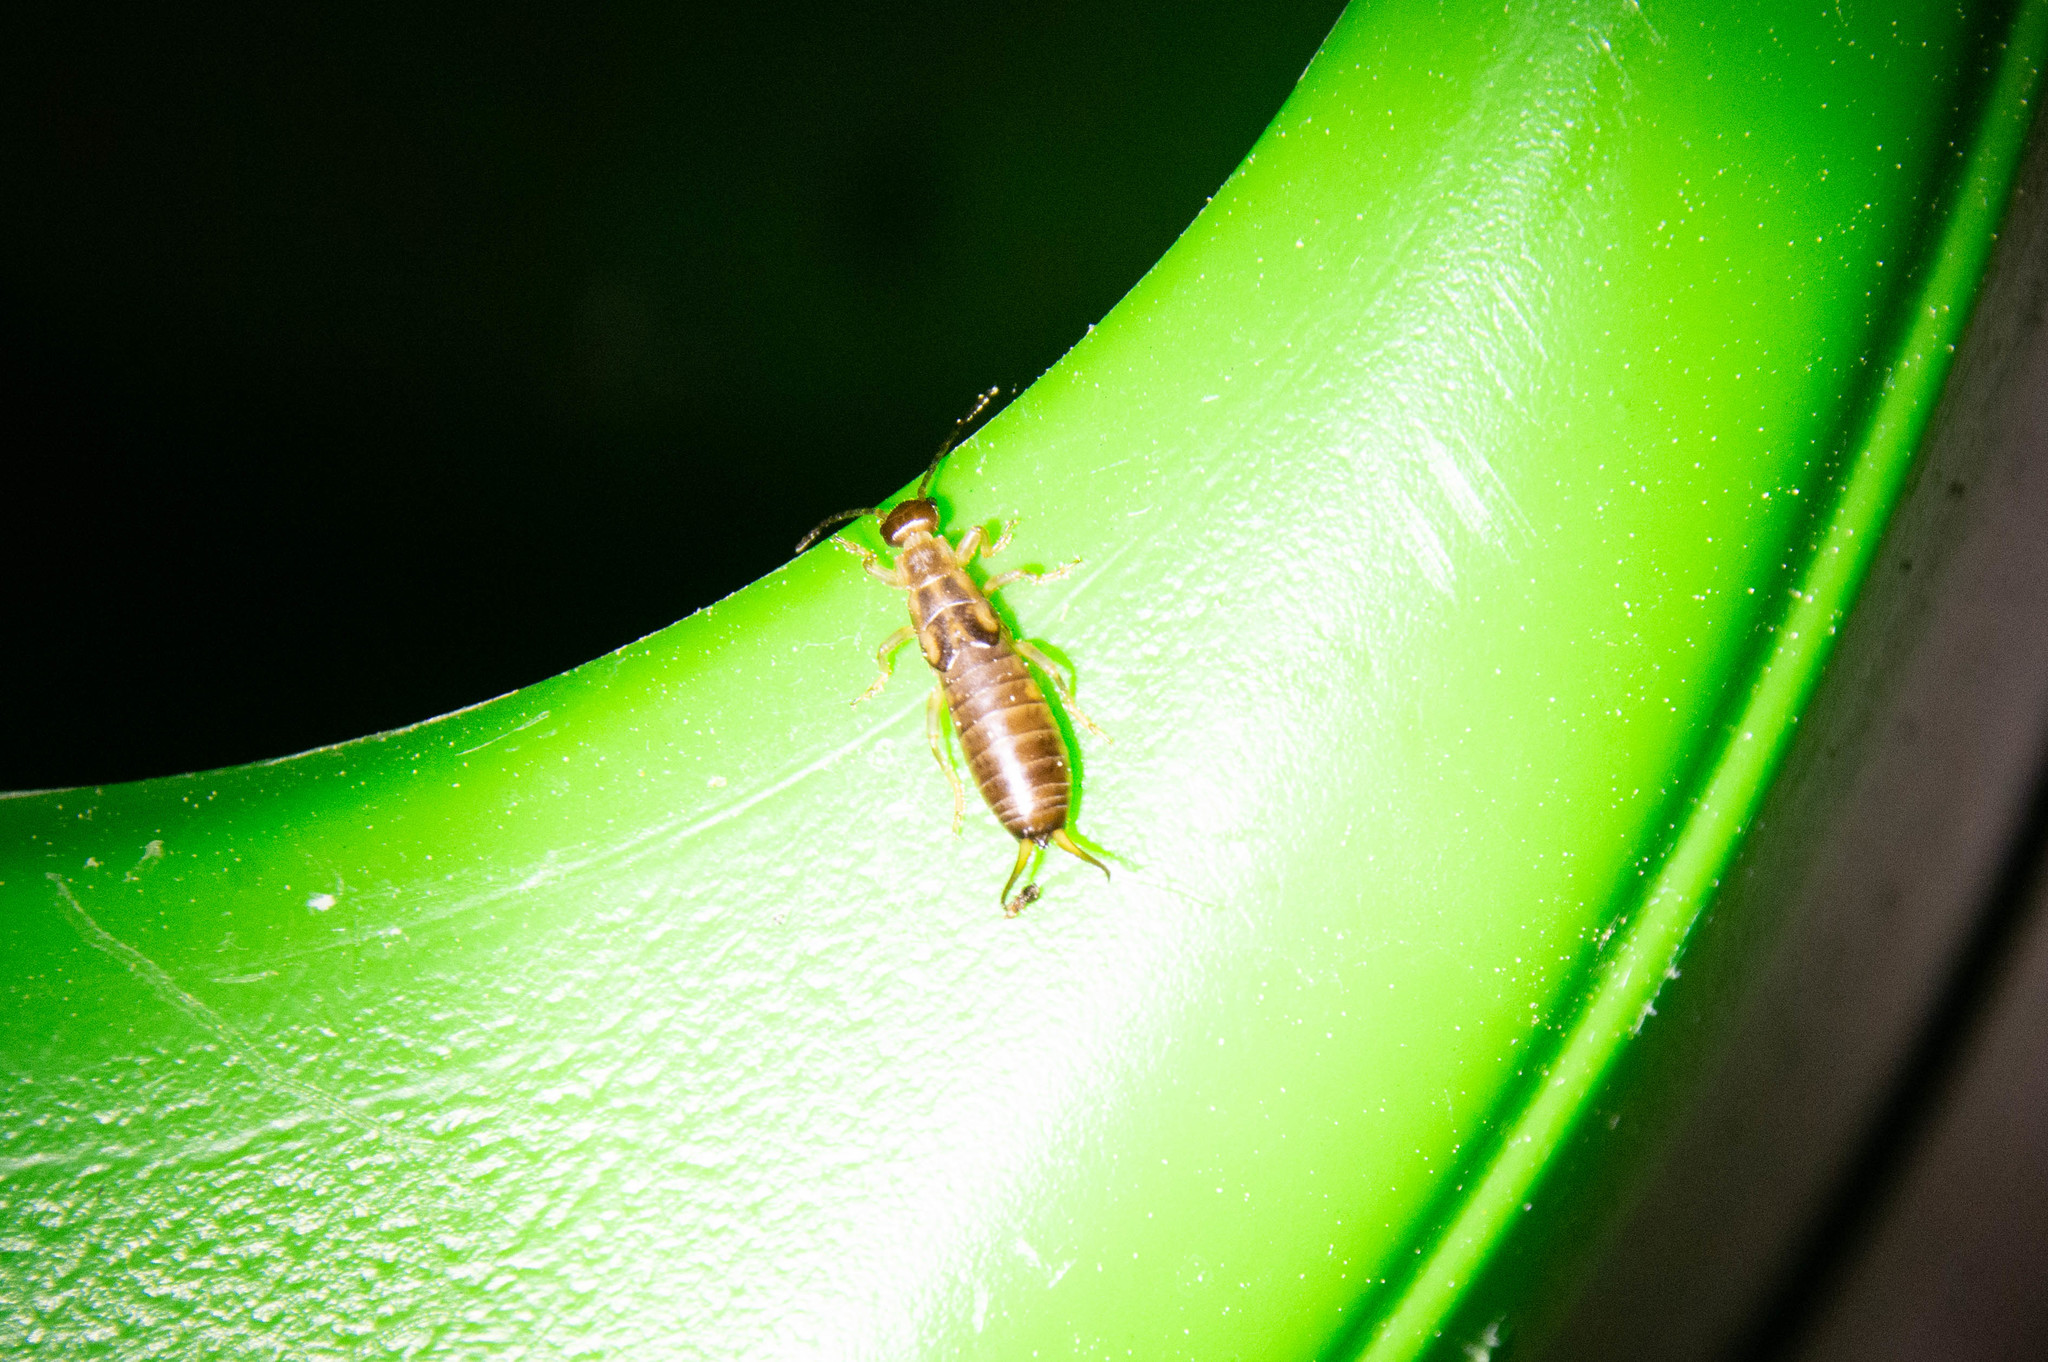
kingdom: Animalia
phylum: Arthropoda
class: Insecta
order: Dermaptera
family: Forficulidae
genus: Forficula
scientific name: Forficula
